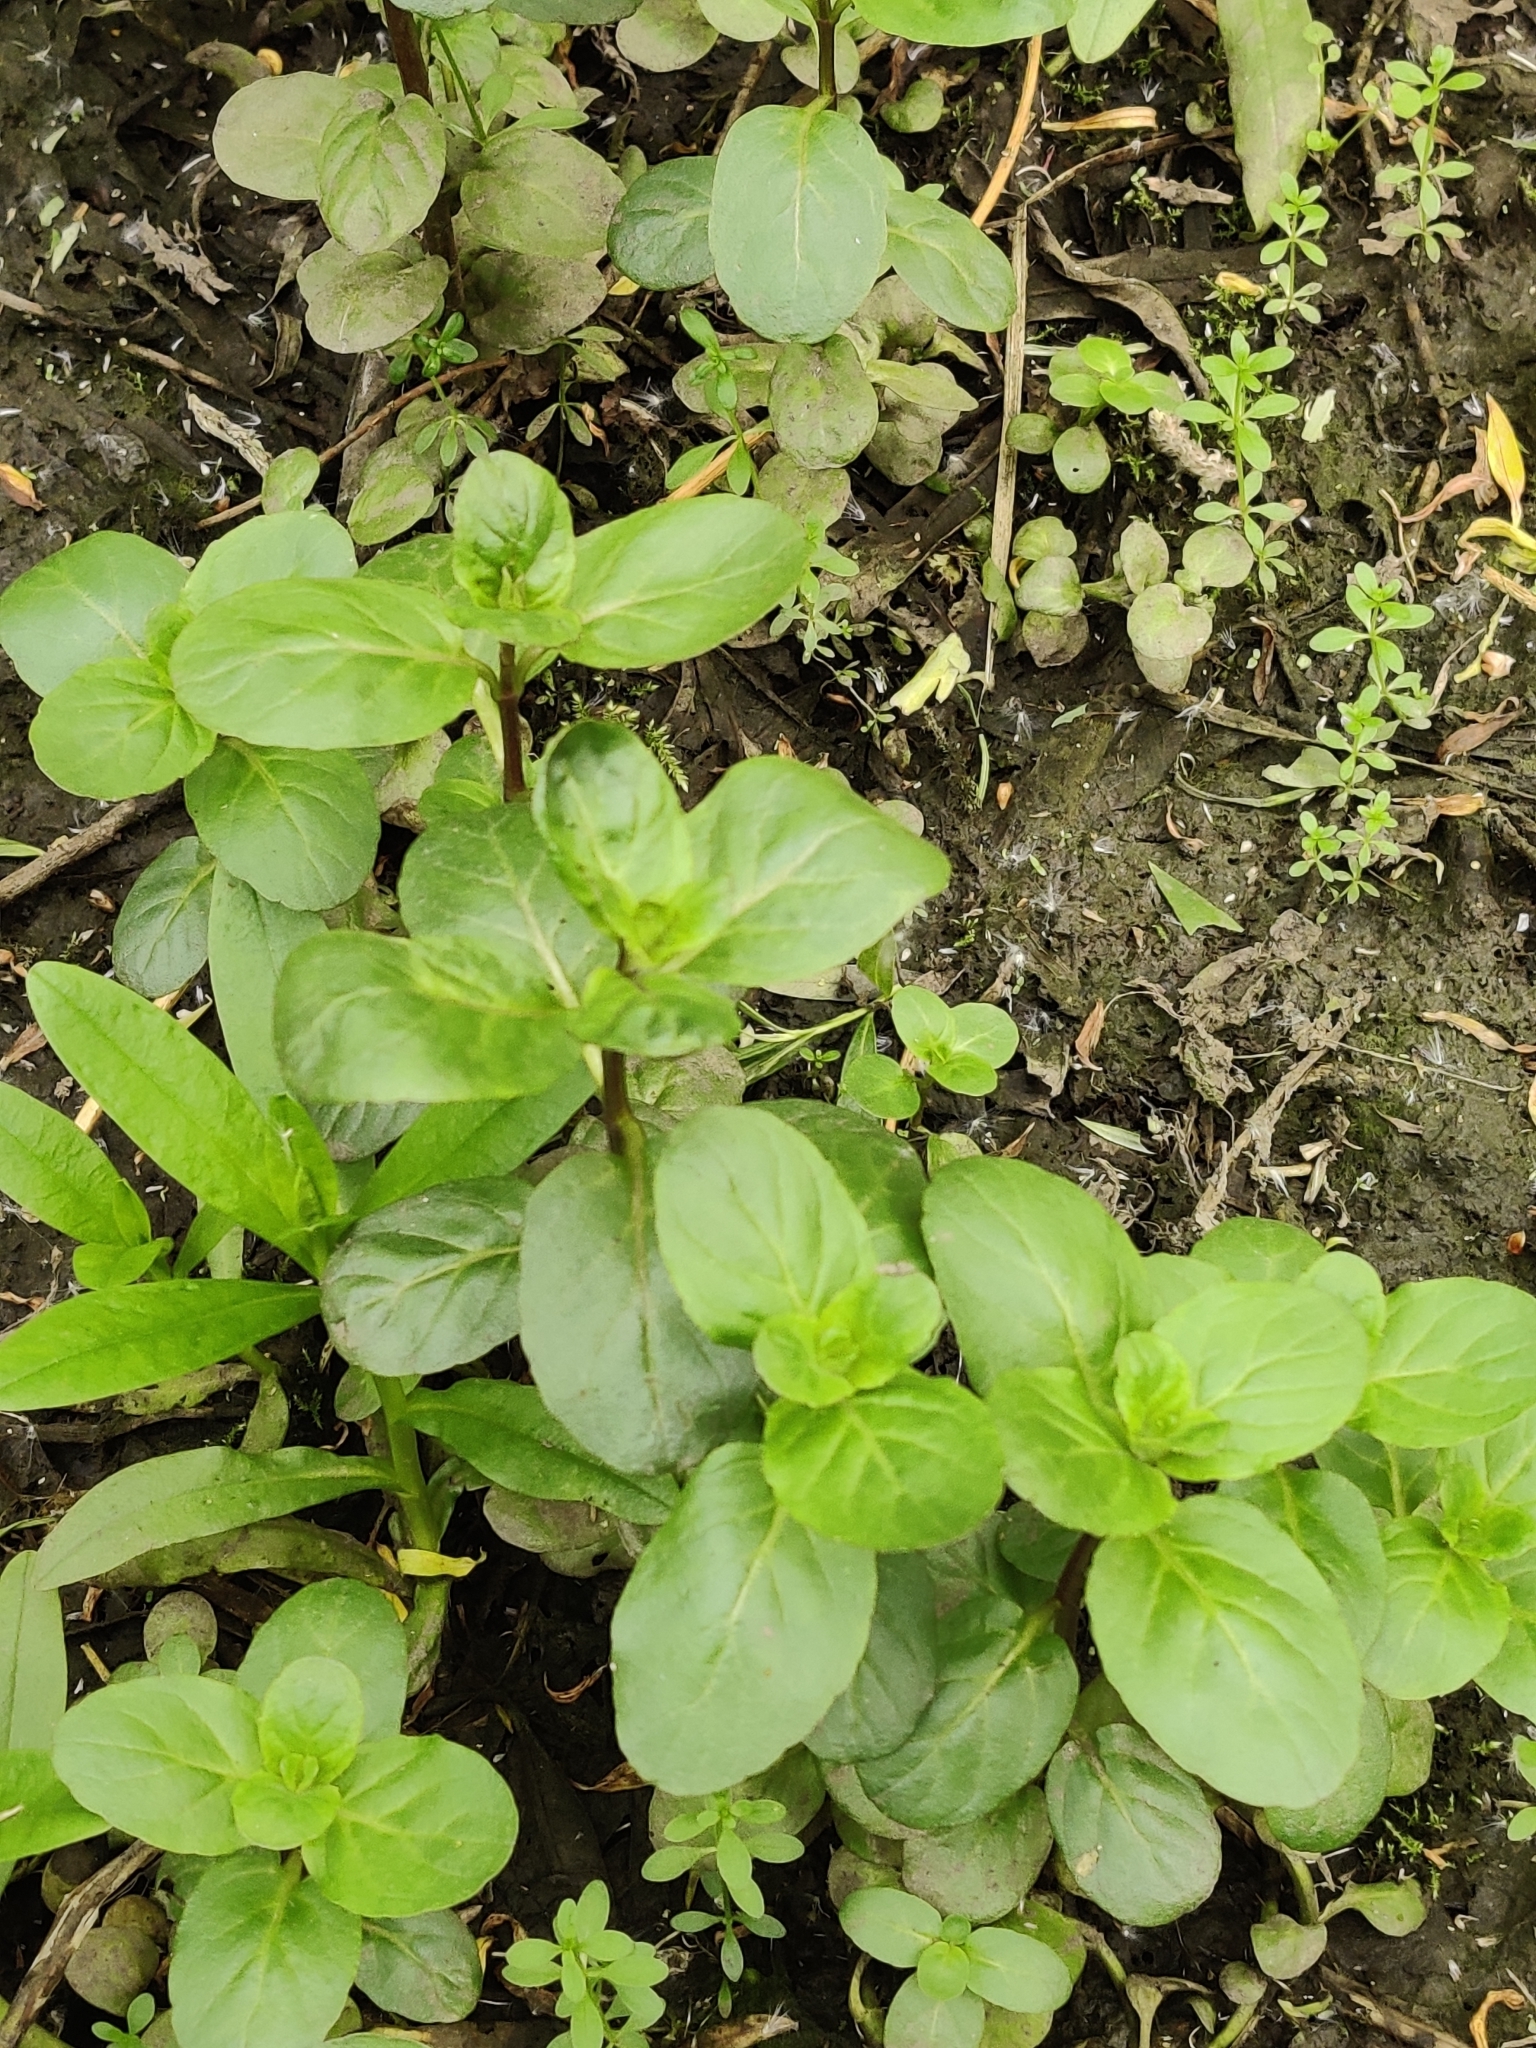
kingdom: Plantae
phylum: Tracheophyta
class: Magnoliopsida
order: Lamiales
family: Lamiaceae
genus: Mentha
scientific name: Mentha aquatica
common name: Water mint
